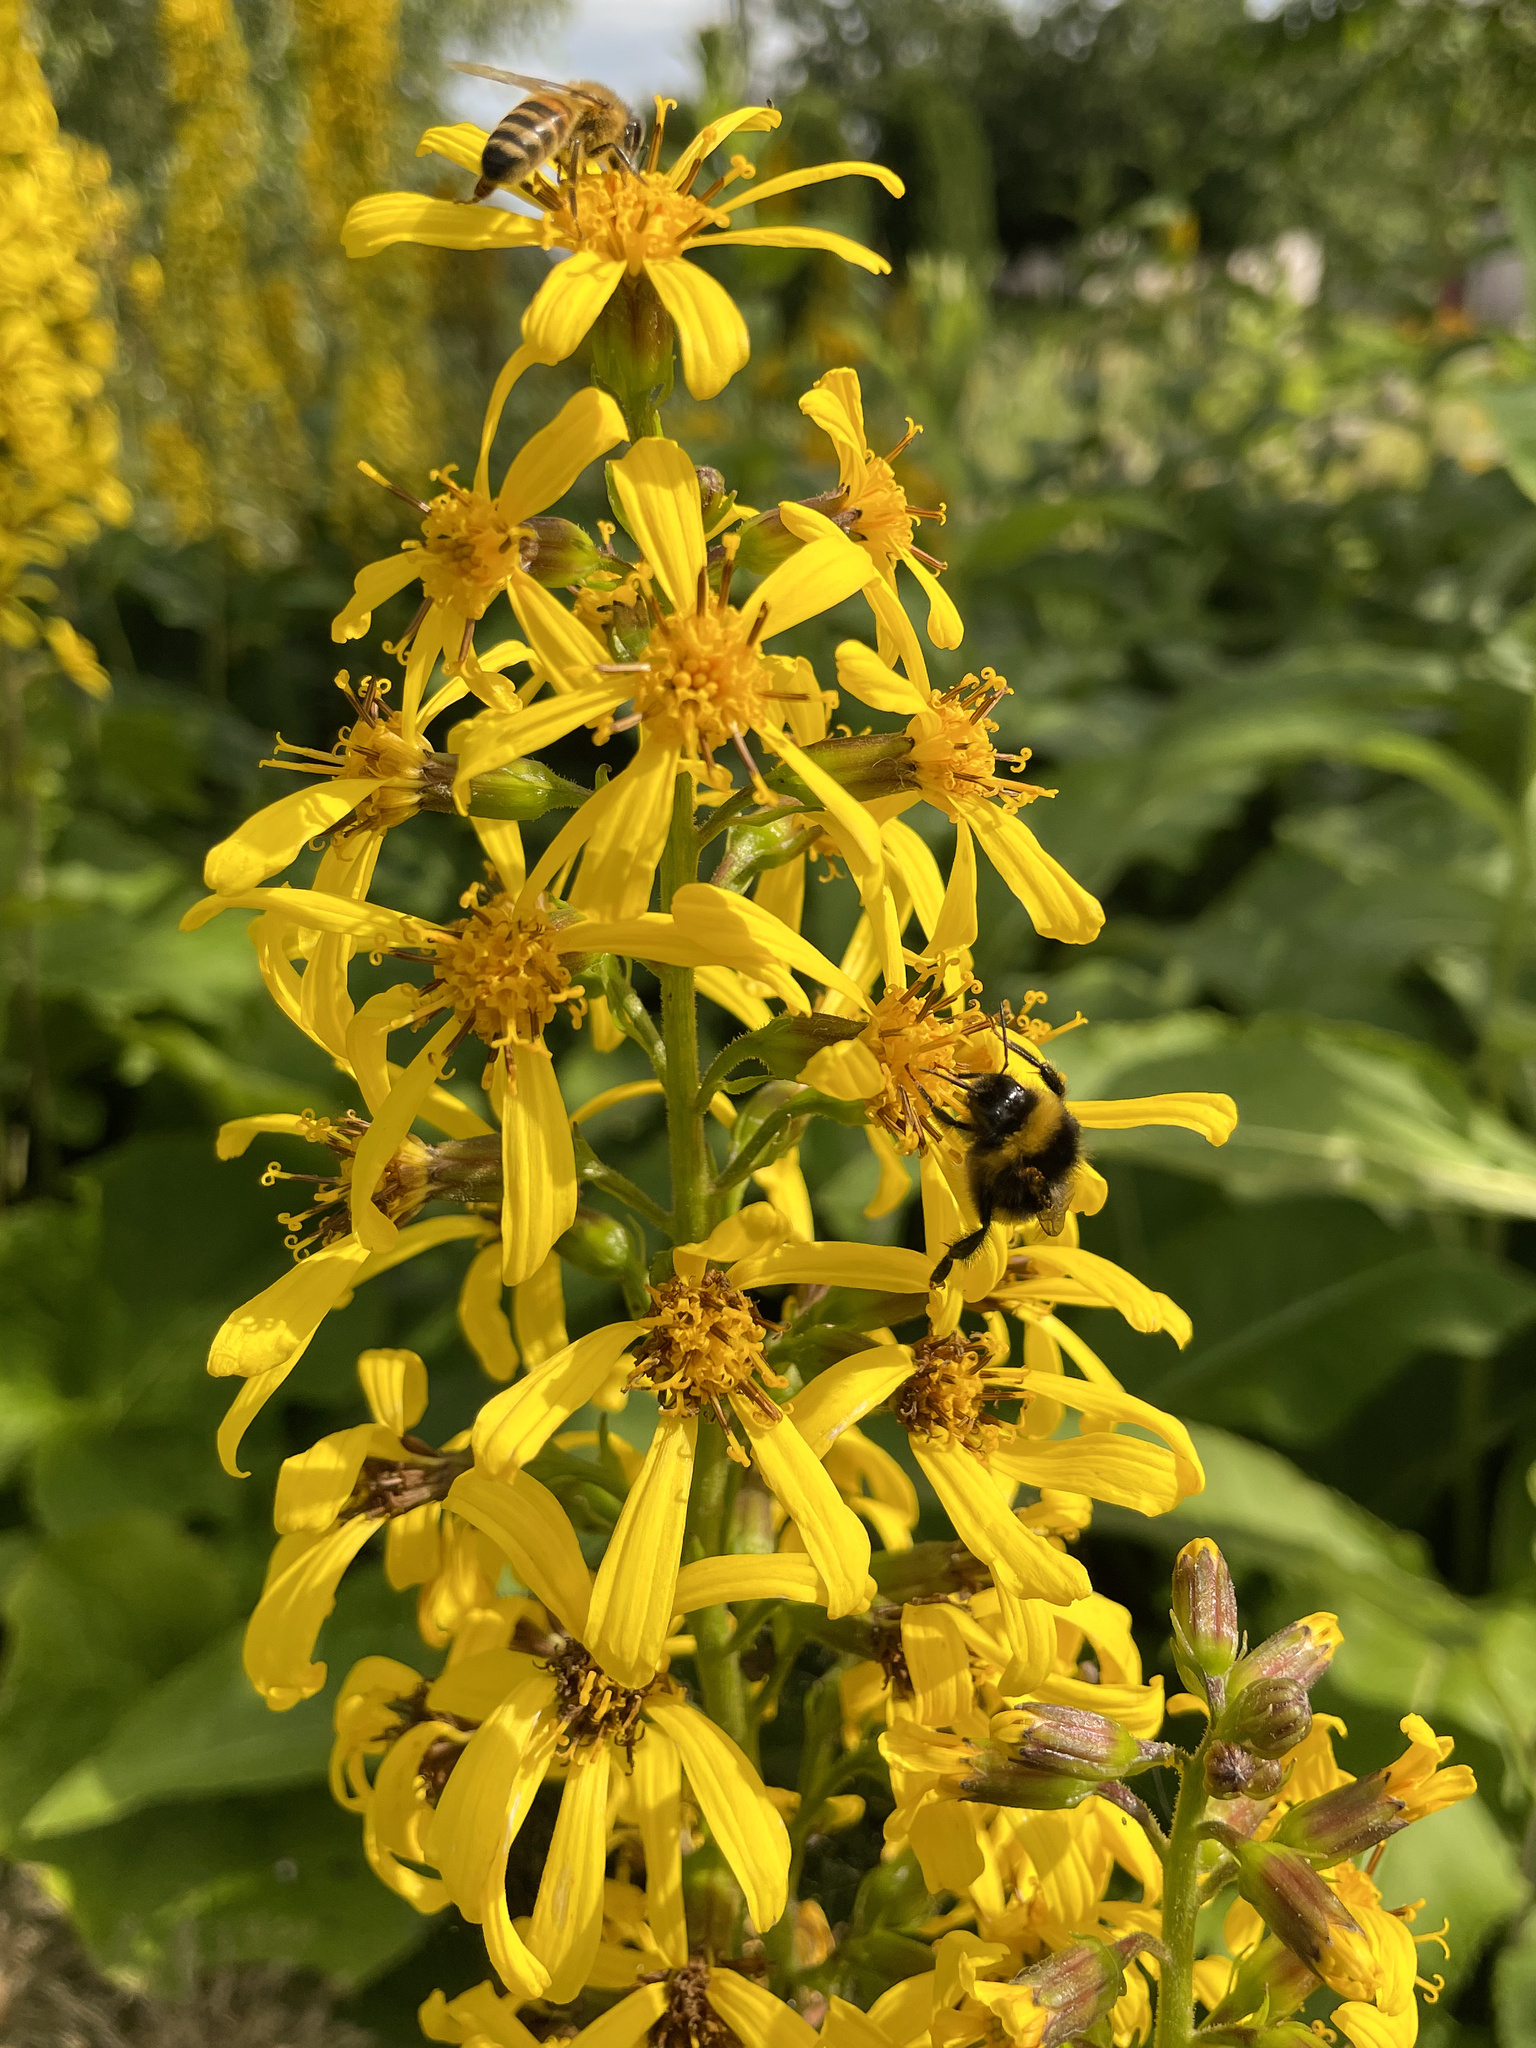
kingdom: Animalia
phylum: Arthropoda
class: Insecta
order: Hymenoptera
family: Apidae
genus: Apis
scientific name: Apis mellifera
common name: Honey bee
